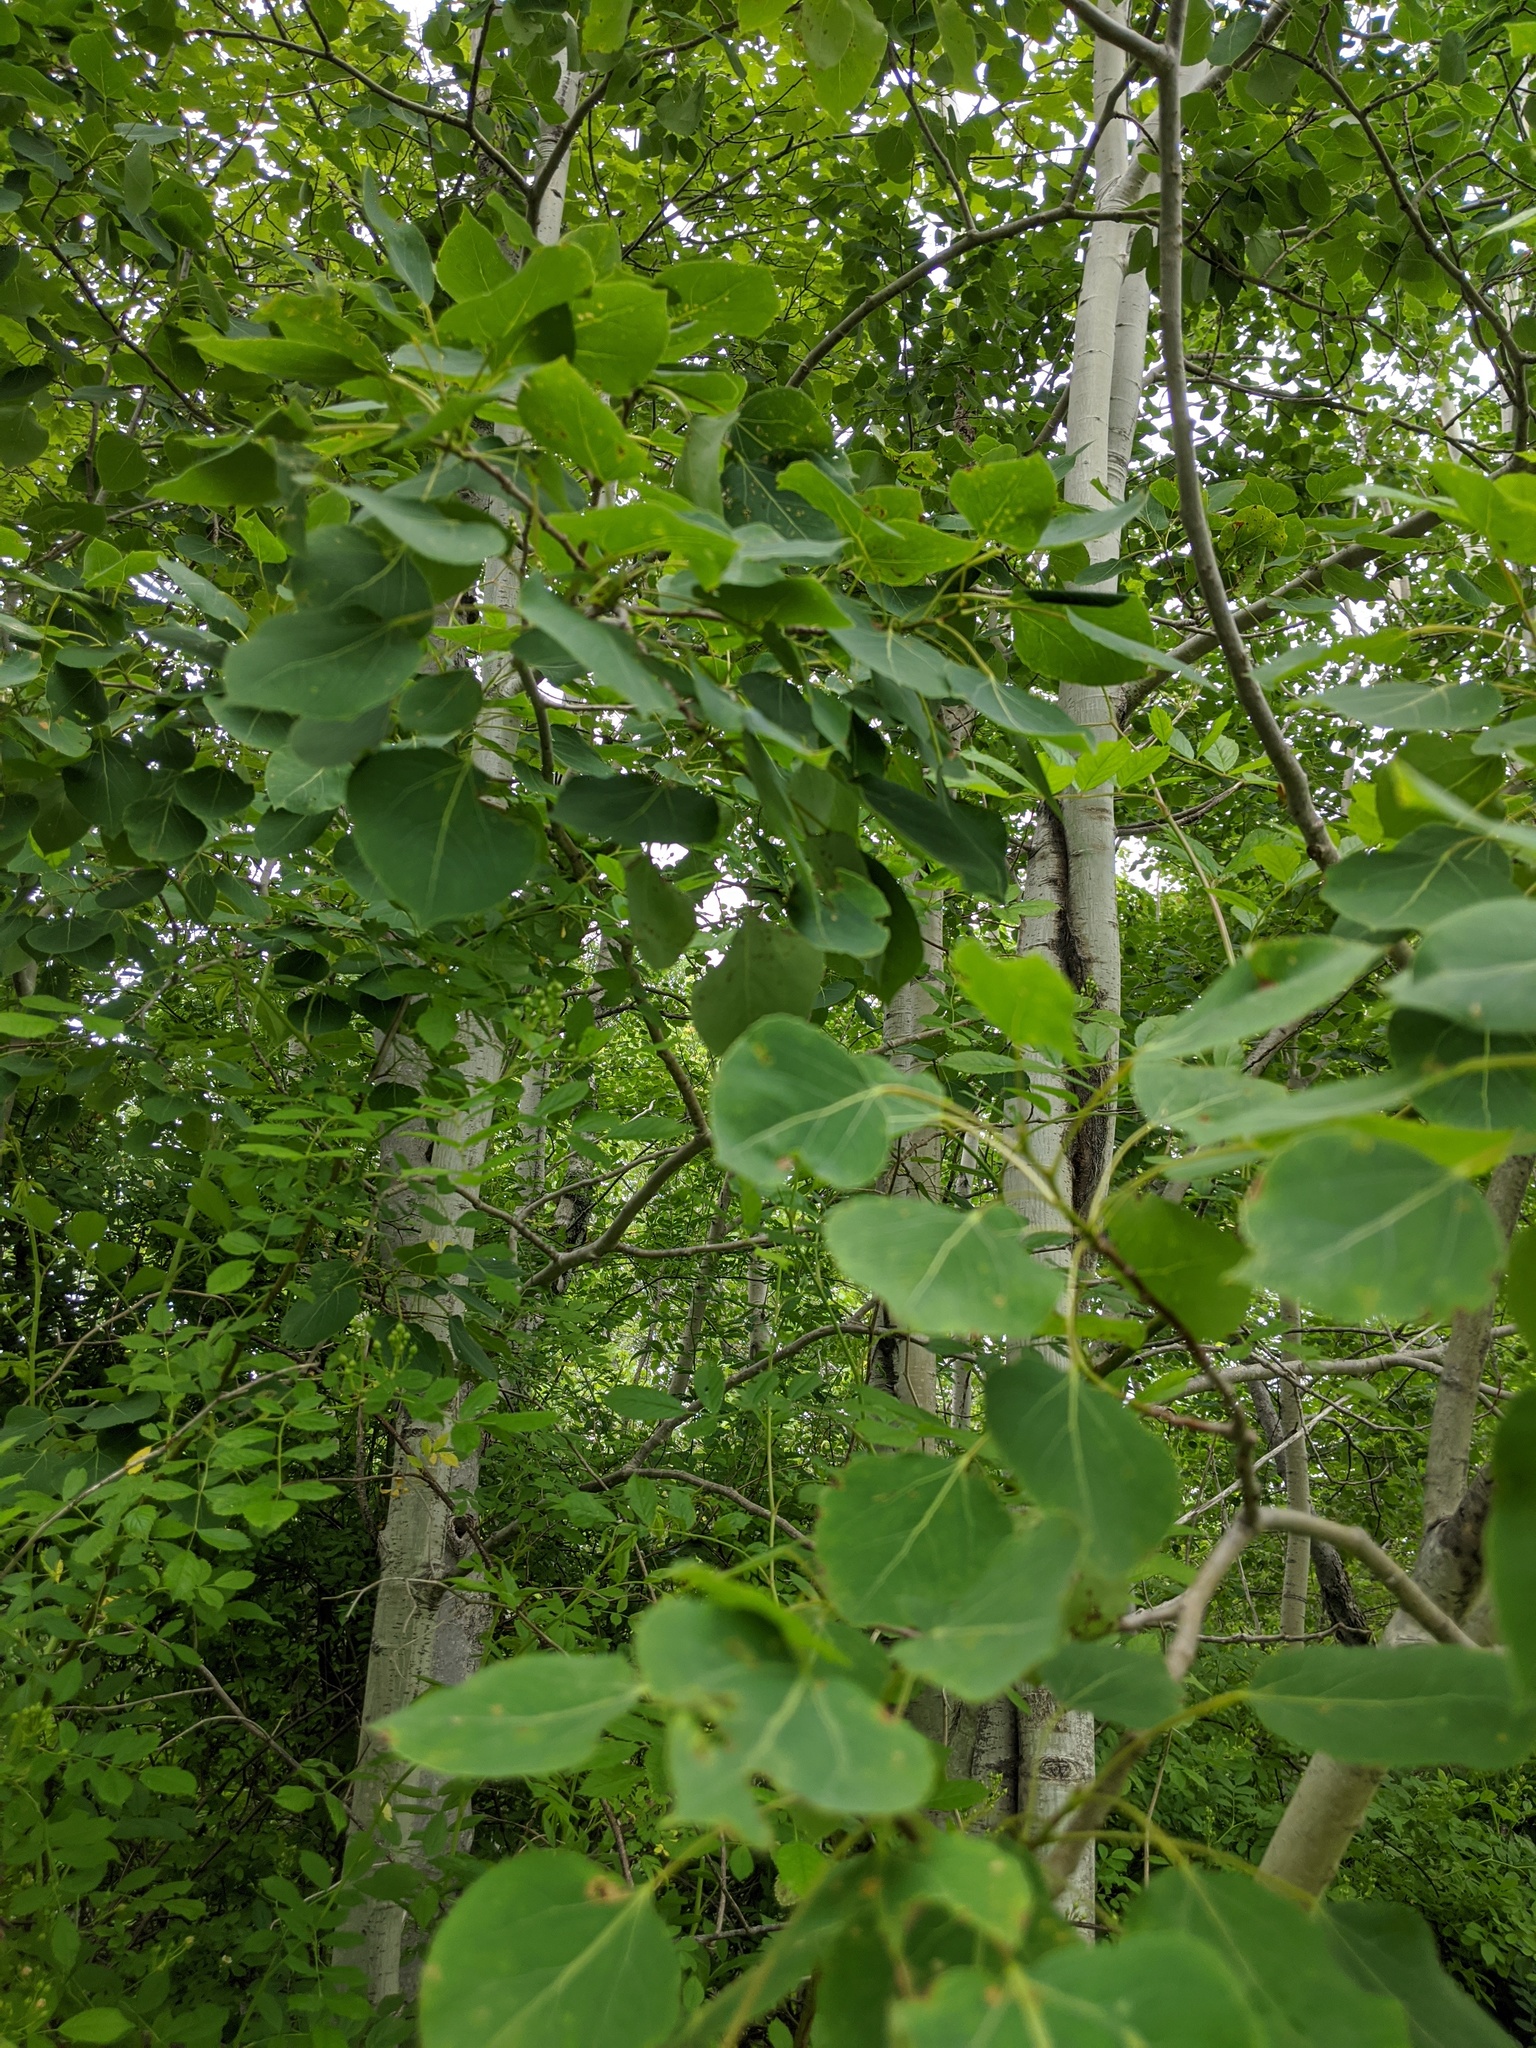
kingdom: Plantae
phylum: Tracheophyta
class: Magnoliopsida
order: Malpighiales
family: Salicaceae
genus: Populus
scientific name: Populus tremuloides
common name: Quaking aspen
